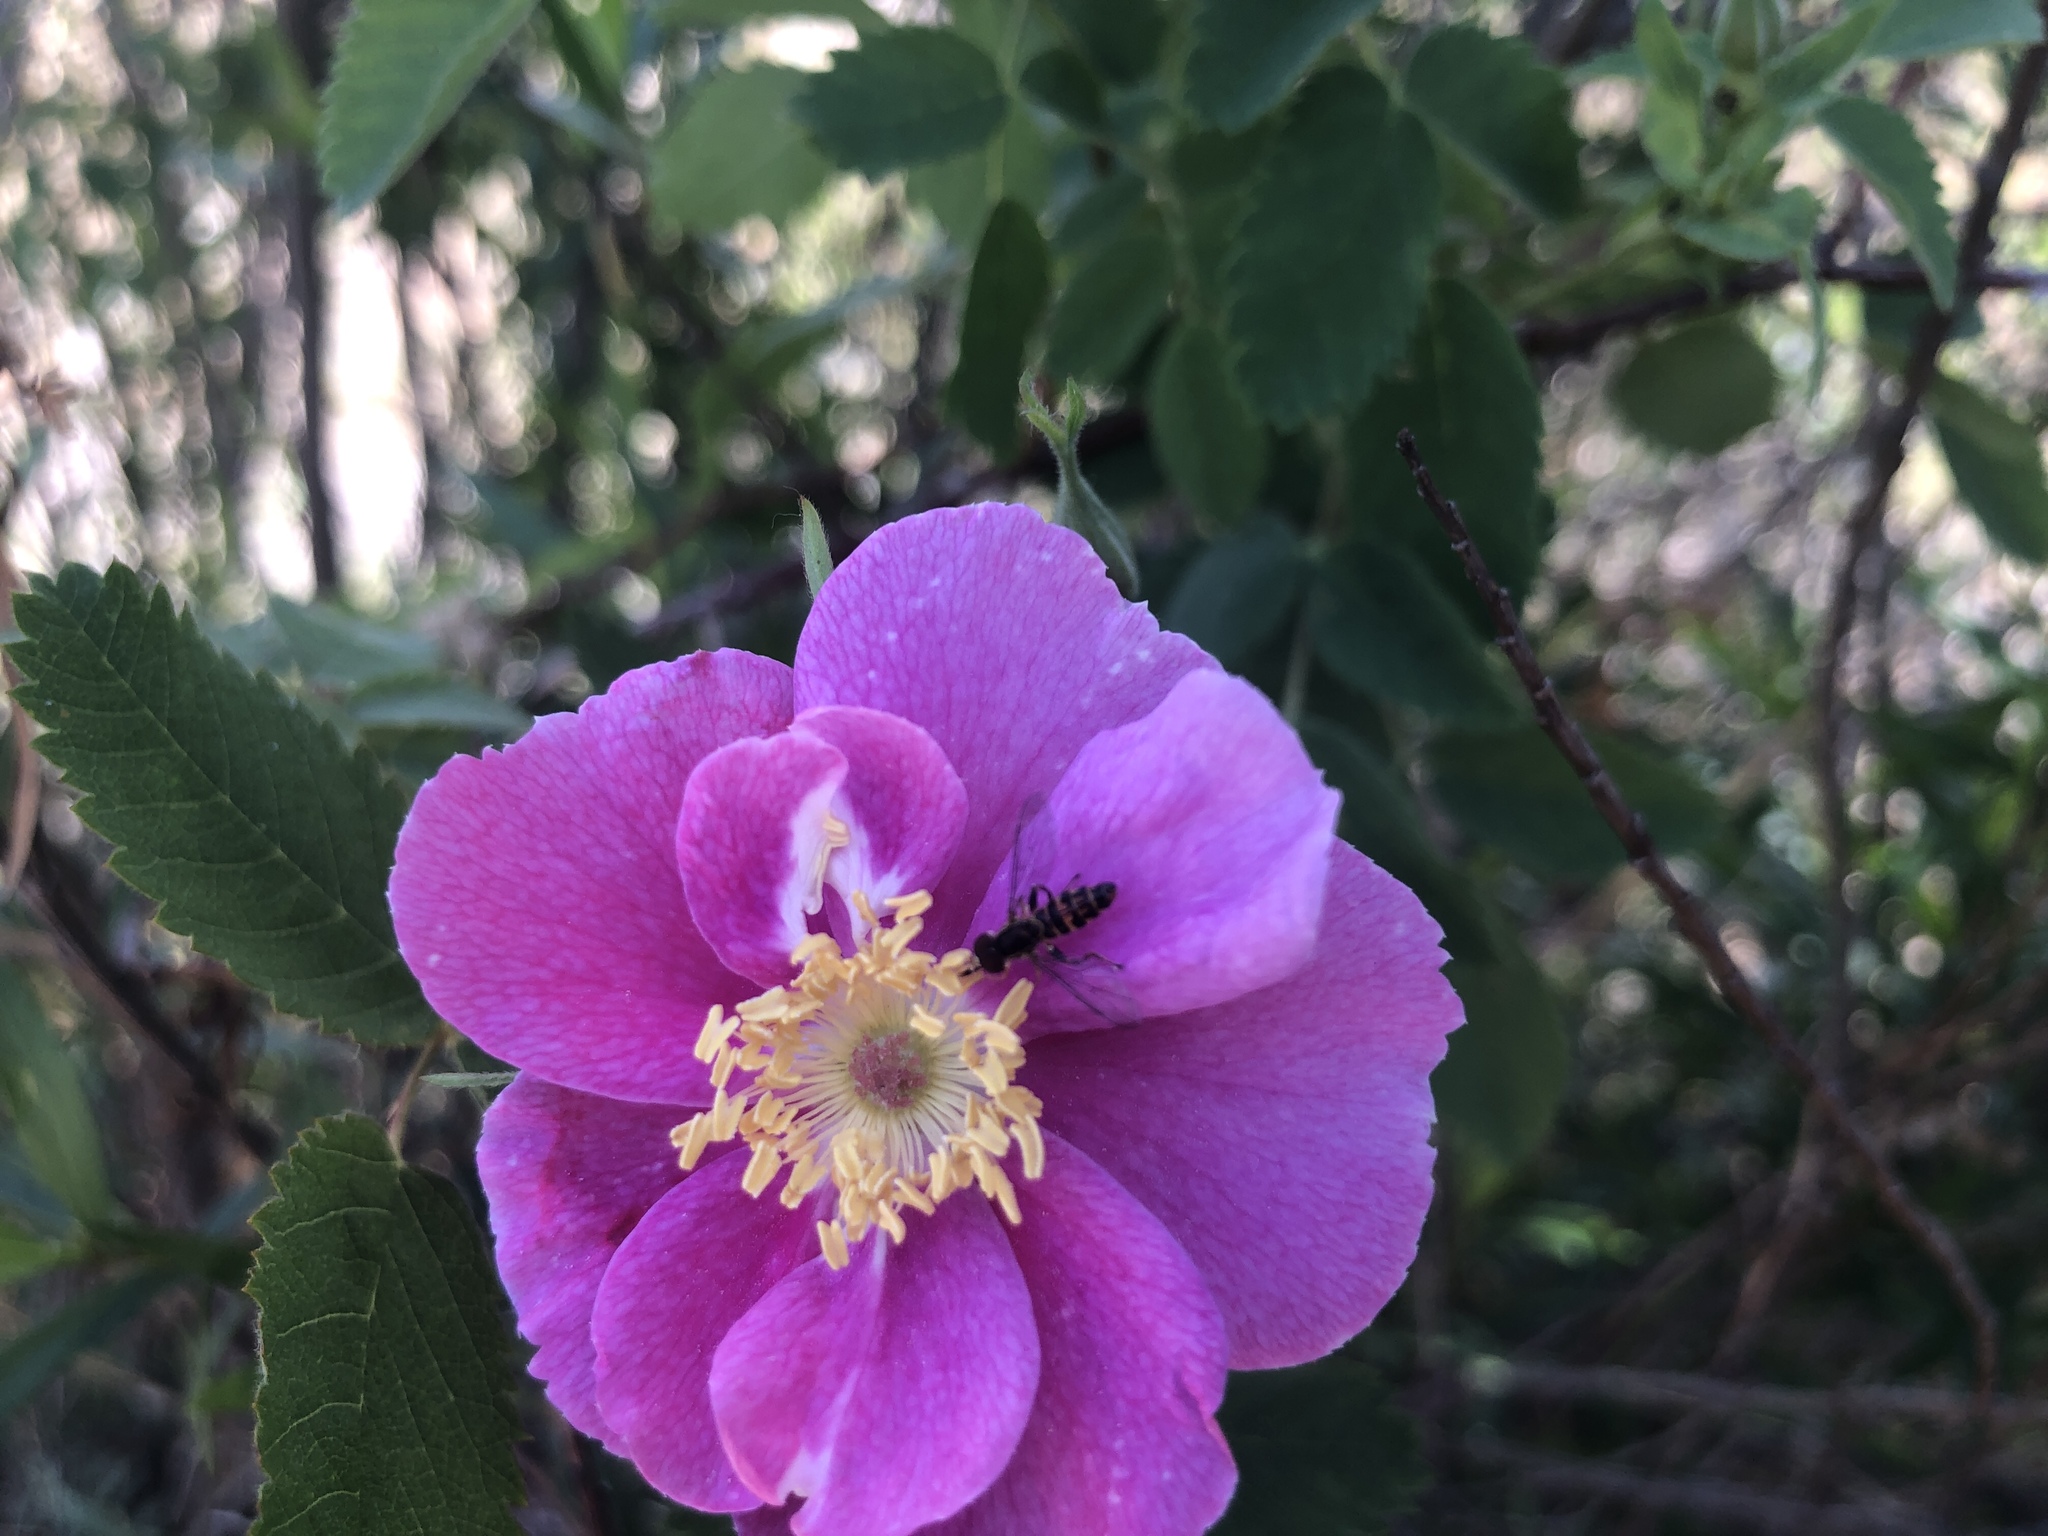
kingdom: Animalia
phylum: Arthropoda
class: Insecta
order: Diptera
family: Syrphidae
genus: Toxomerus
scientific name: Toxomerus occidentalis
